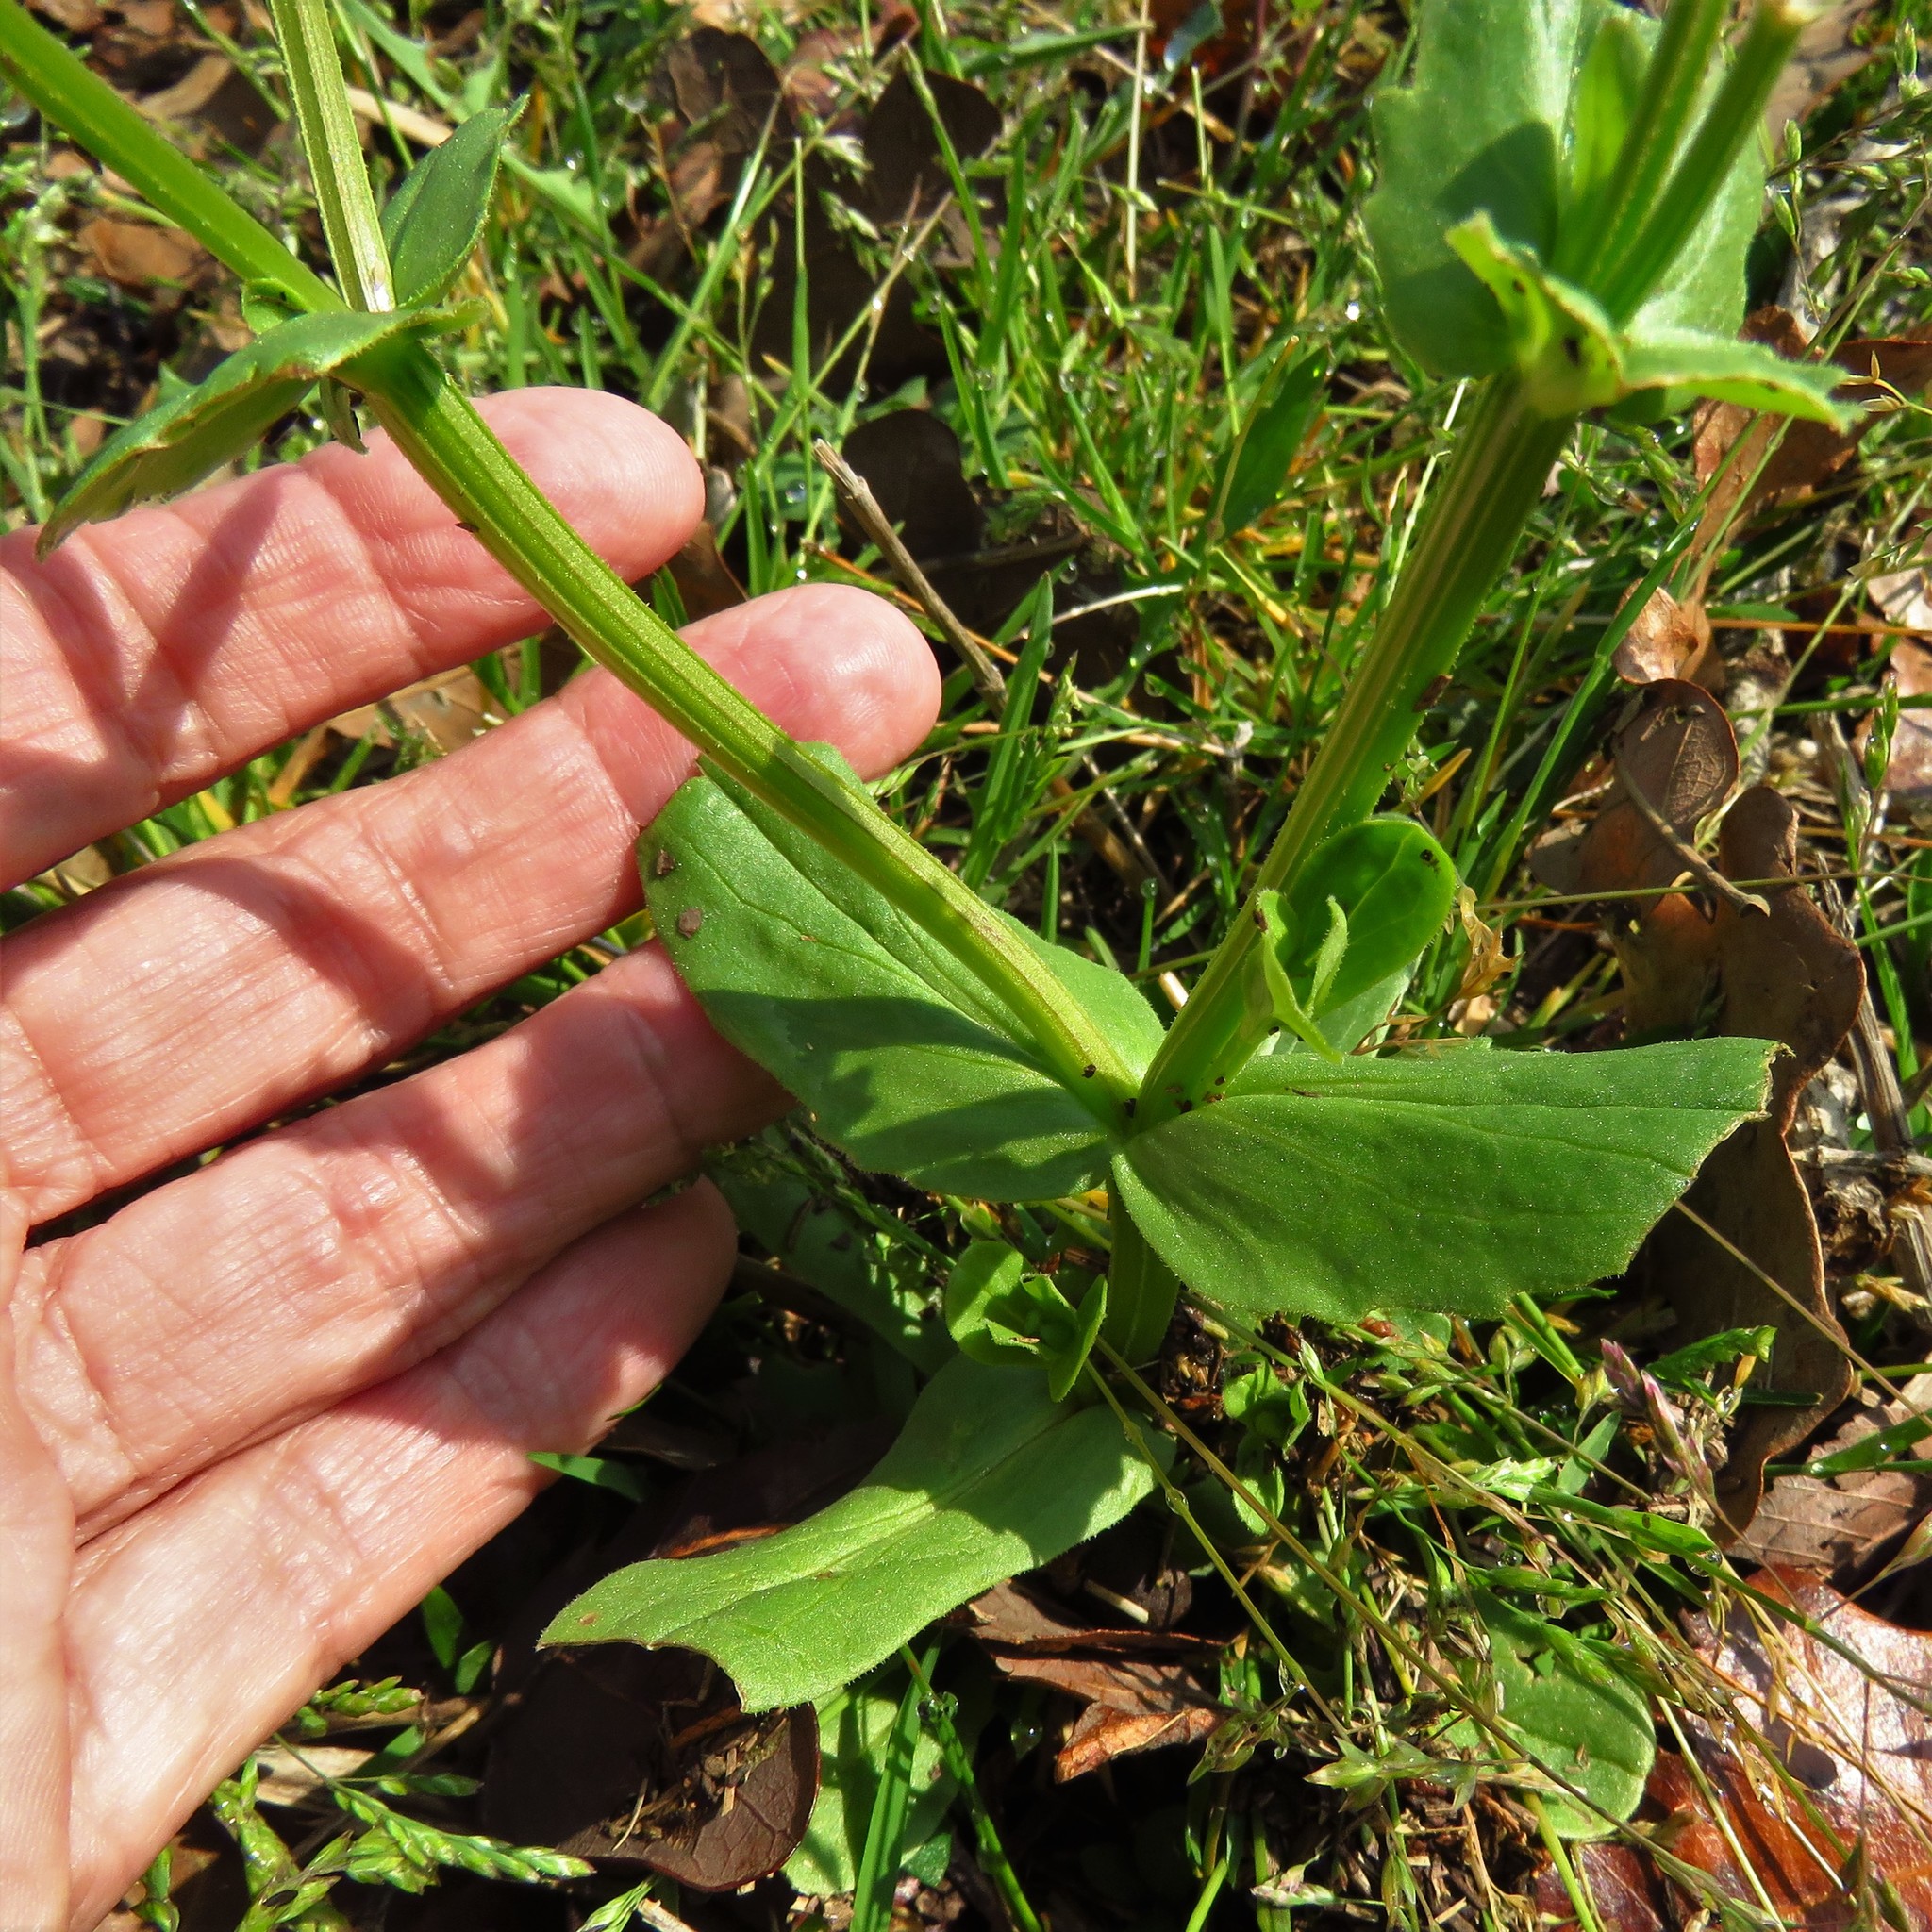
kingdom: Plantae
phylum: Tracheophyta
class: Magnoliopsida
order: Dipsacales
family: Caprifoliaceae
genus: Valerianella
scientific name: Valerianella radiata
